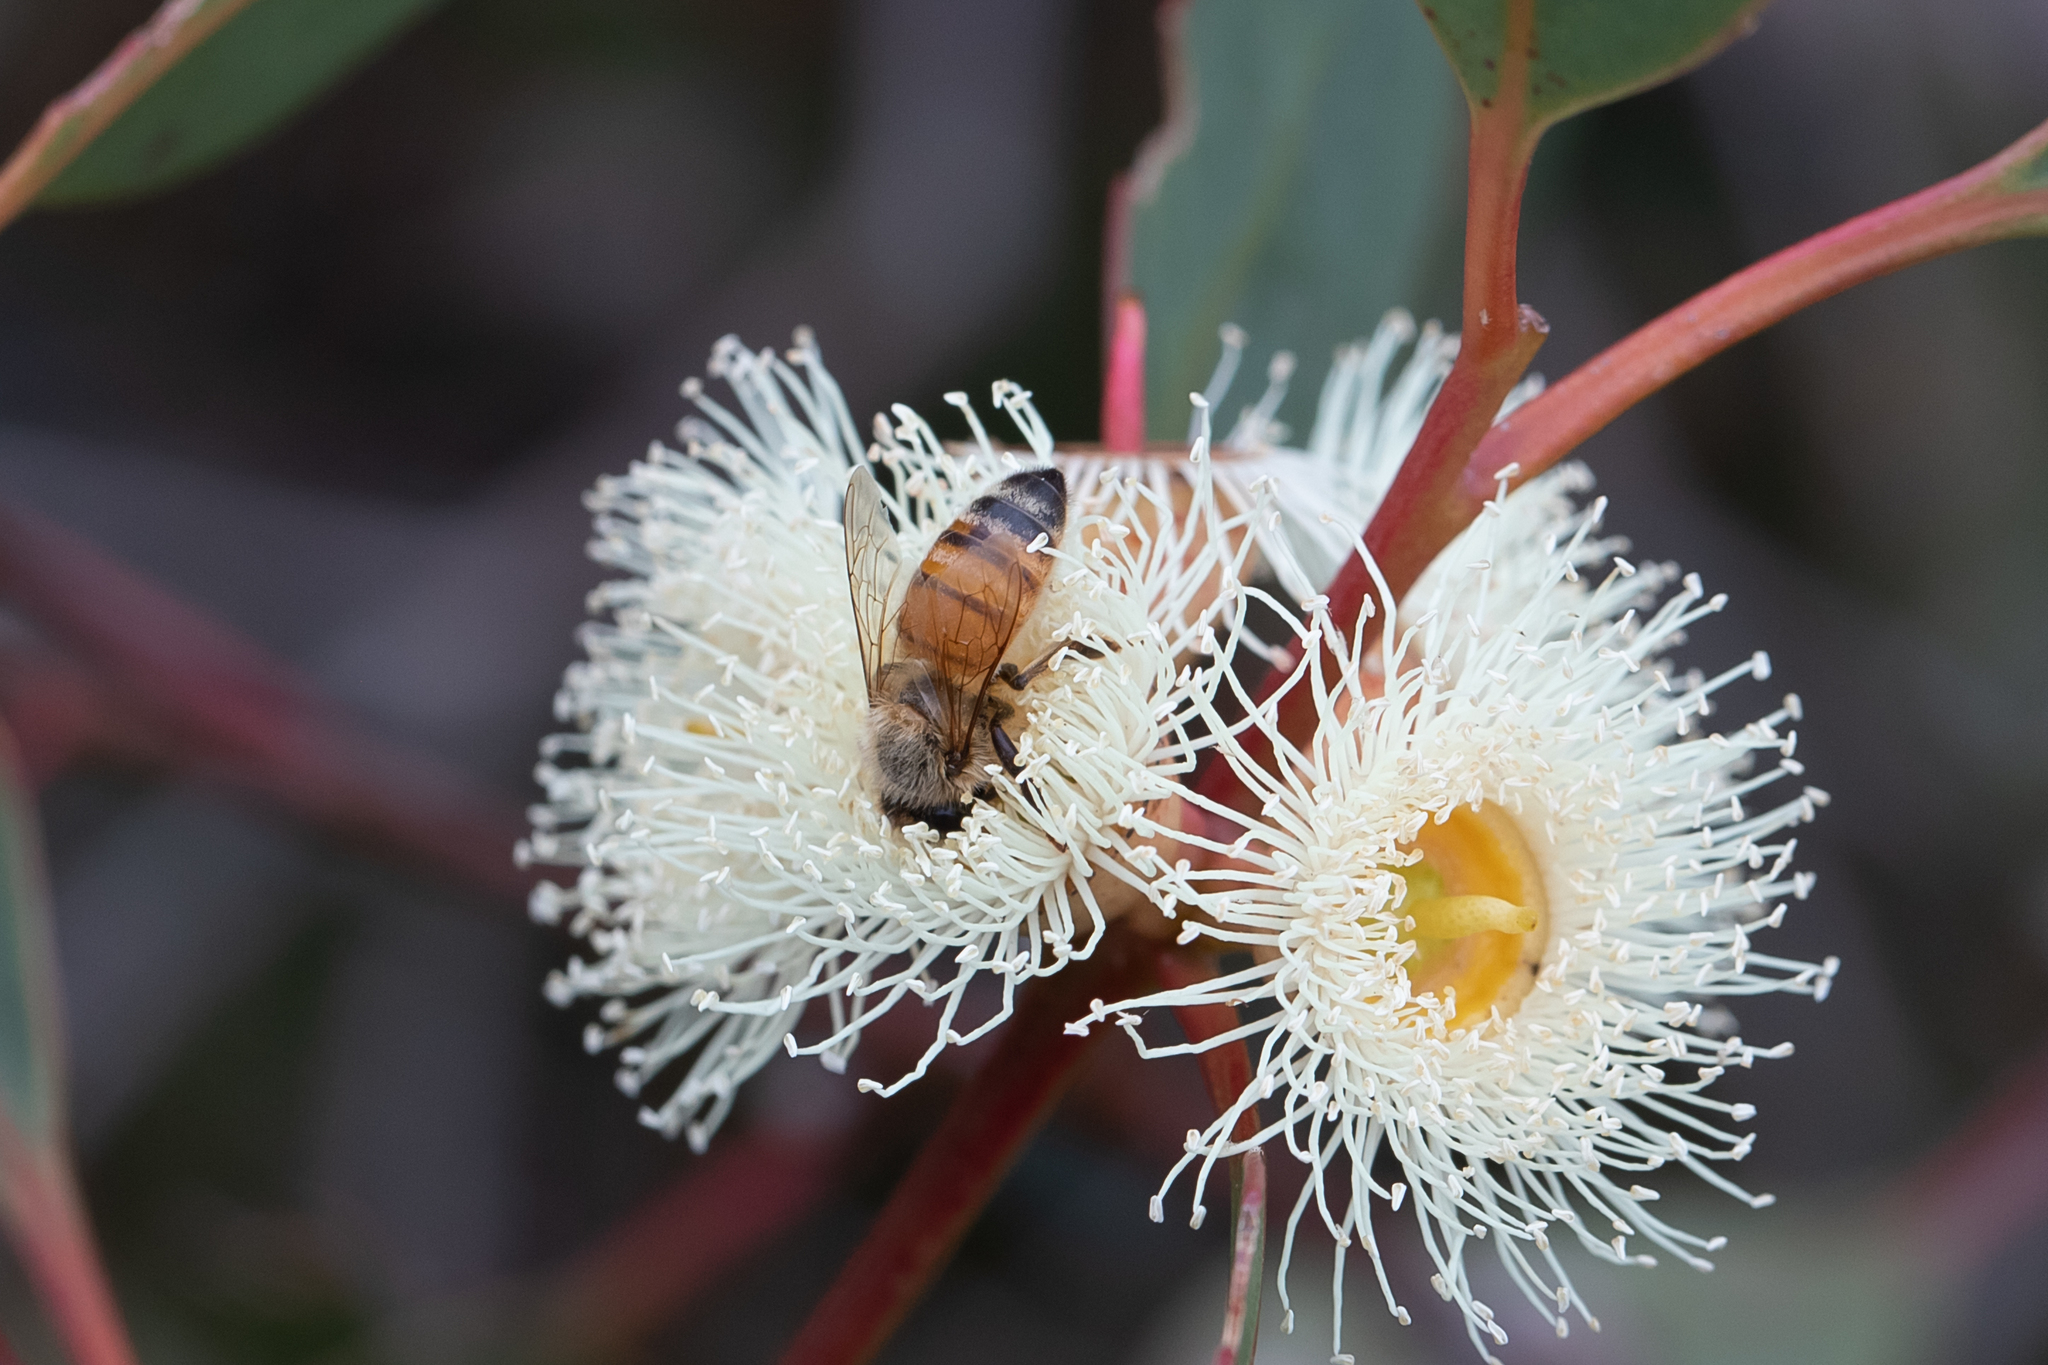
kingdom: Animalia
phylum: Arthropoda
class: Insecta
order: Hymenoptera
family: Apidae
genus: Apis
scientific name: Apis mellifera
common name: Honey bee
